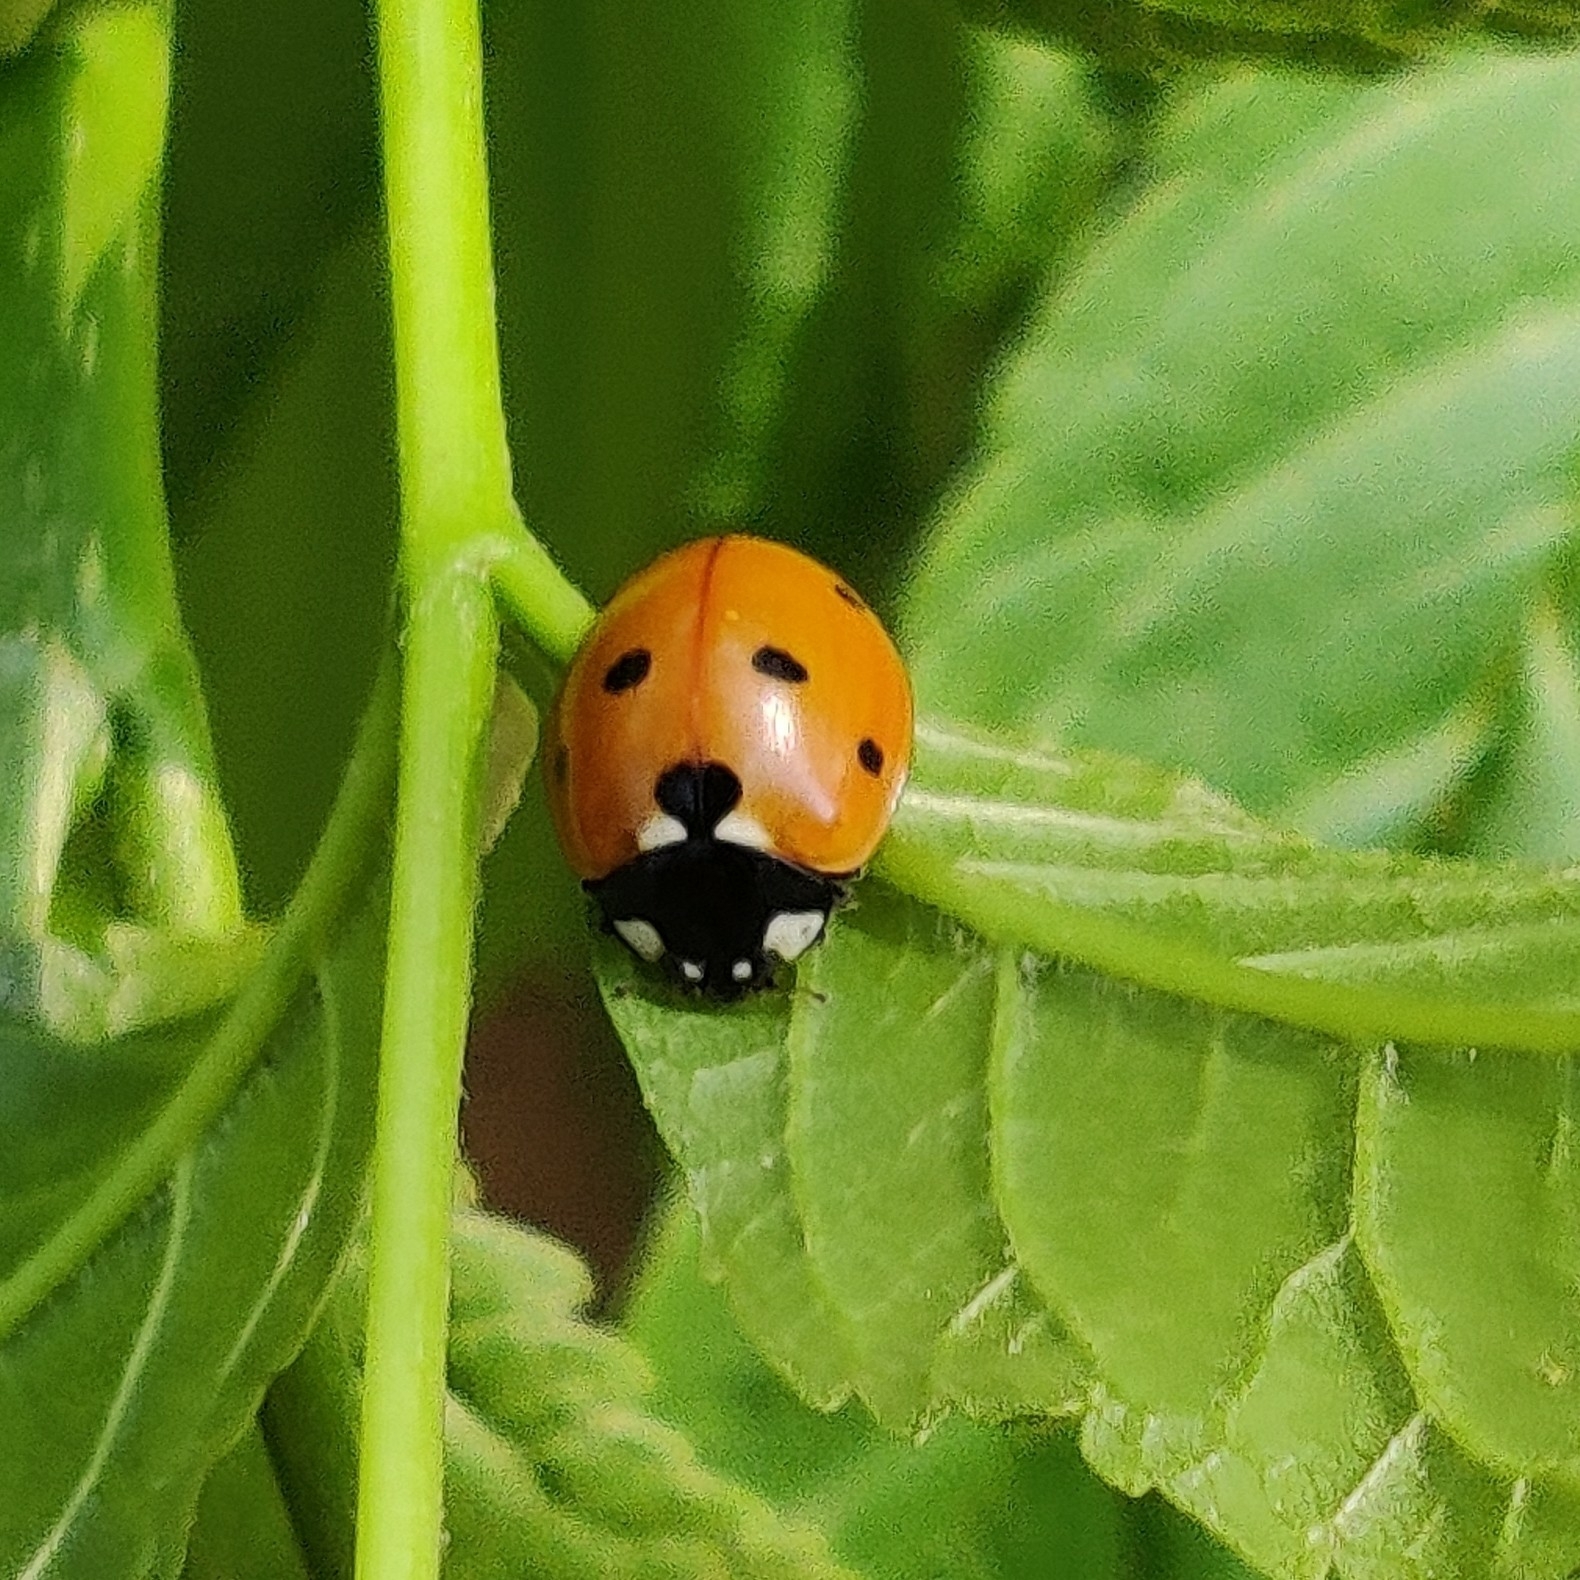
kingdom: Animalia
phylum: Arthropoda
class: Insecta
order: Coleoptera
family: Coccinellidae
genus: Coccinella
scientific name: Coccinella septempunctata
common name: Sevenspotted lady beetle
